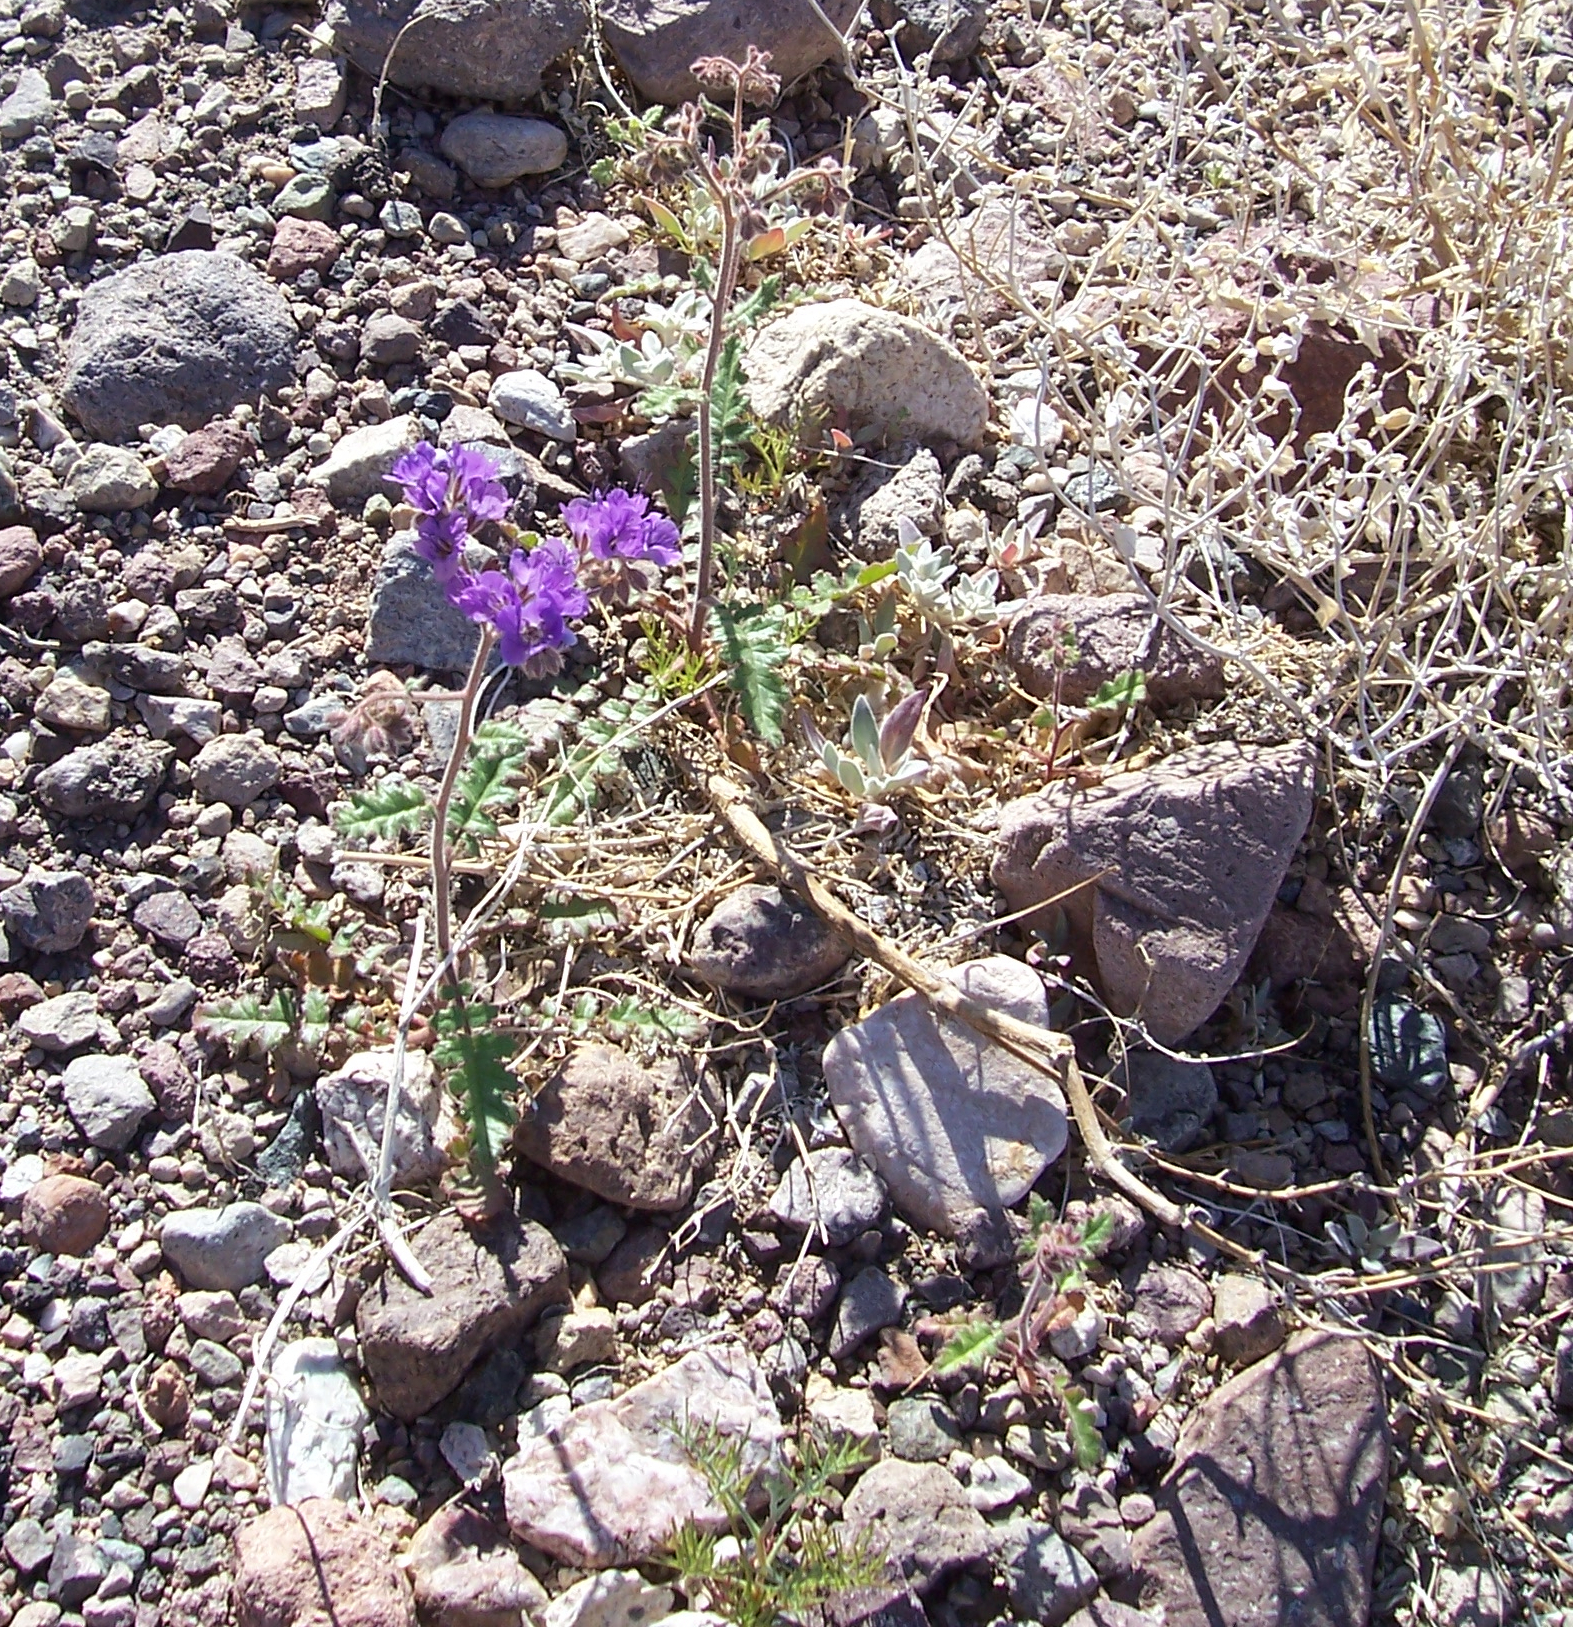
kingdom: Plantae
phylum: Tracheophyta
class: Magnoliopsida
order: Boraginales
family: Hydrophyllaceae
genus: Phacelia
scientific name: Phacelia crenulata
